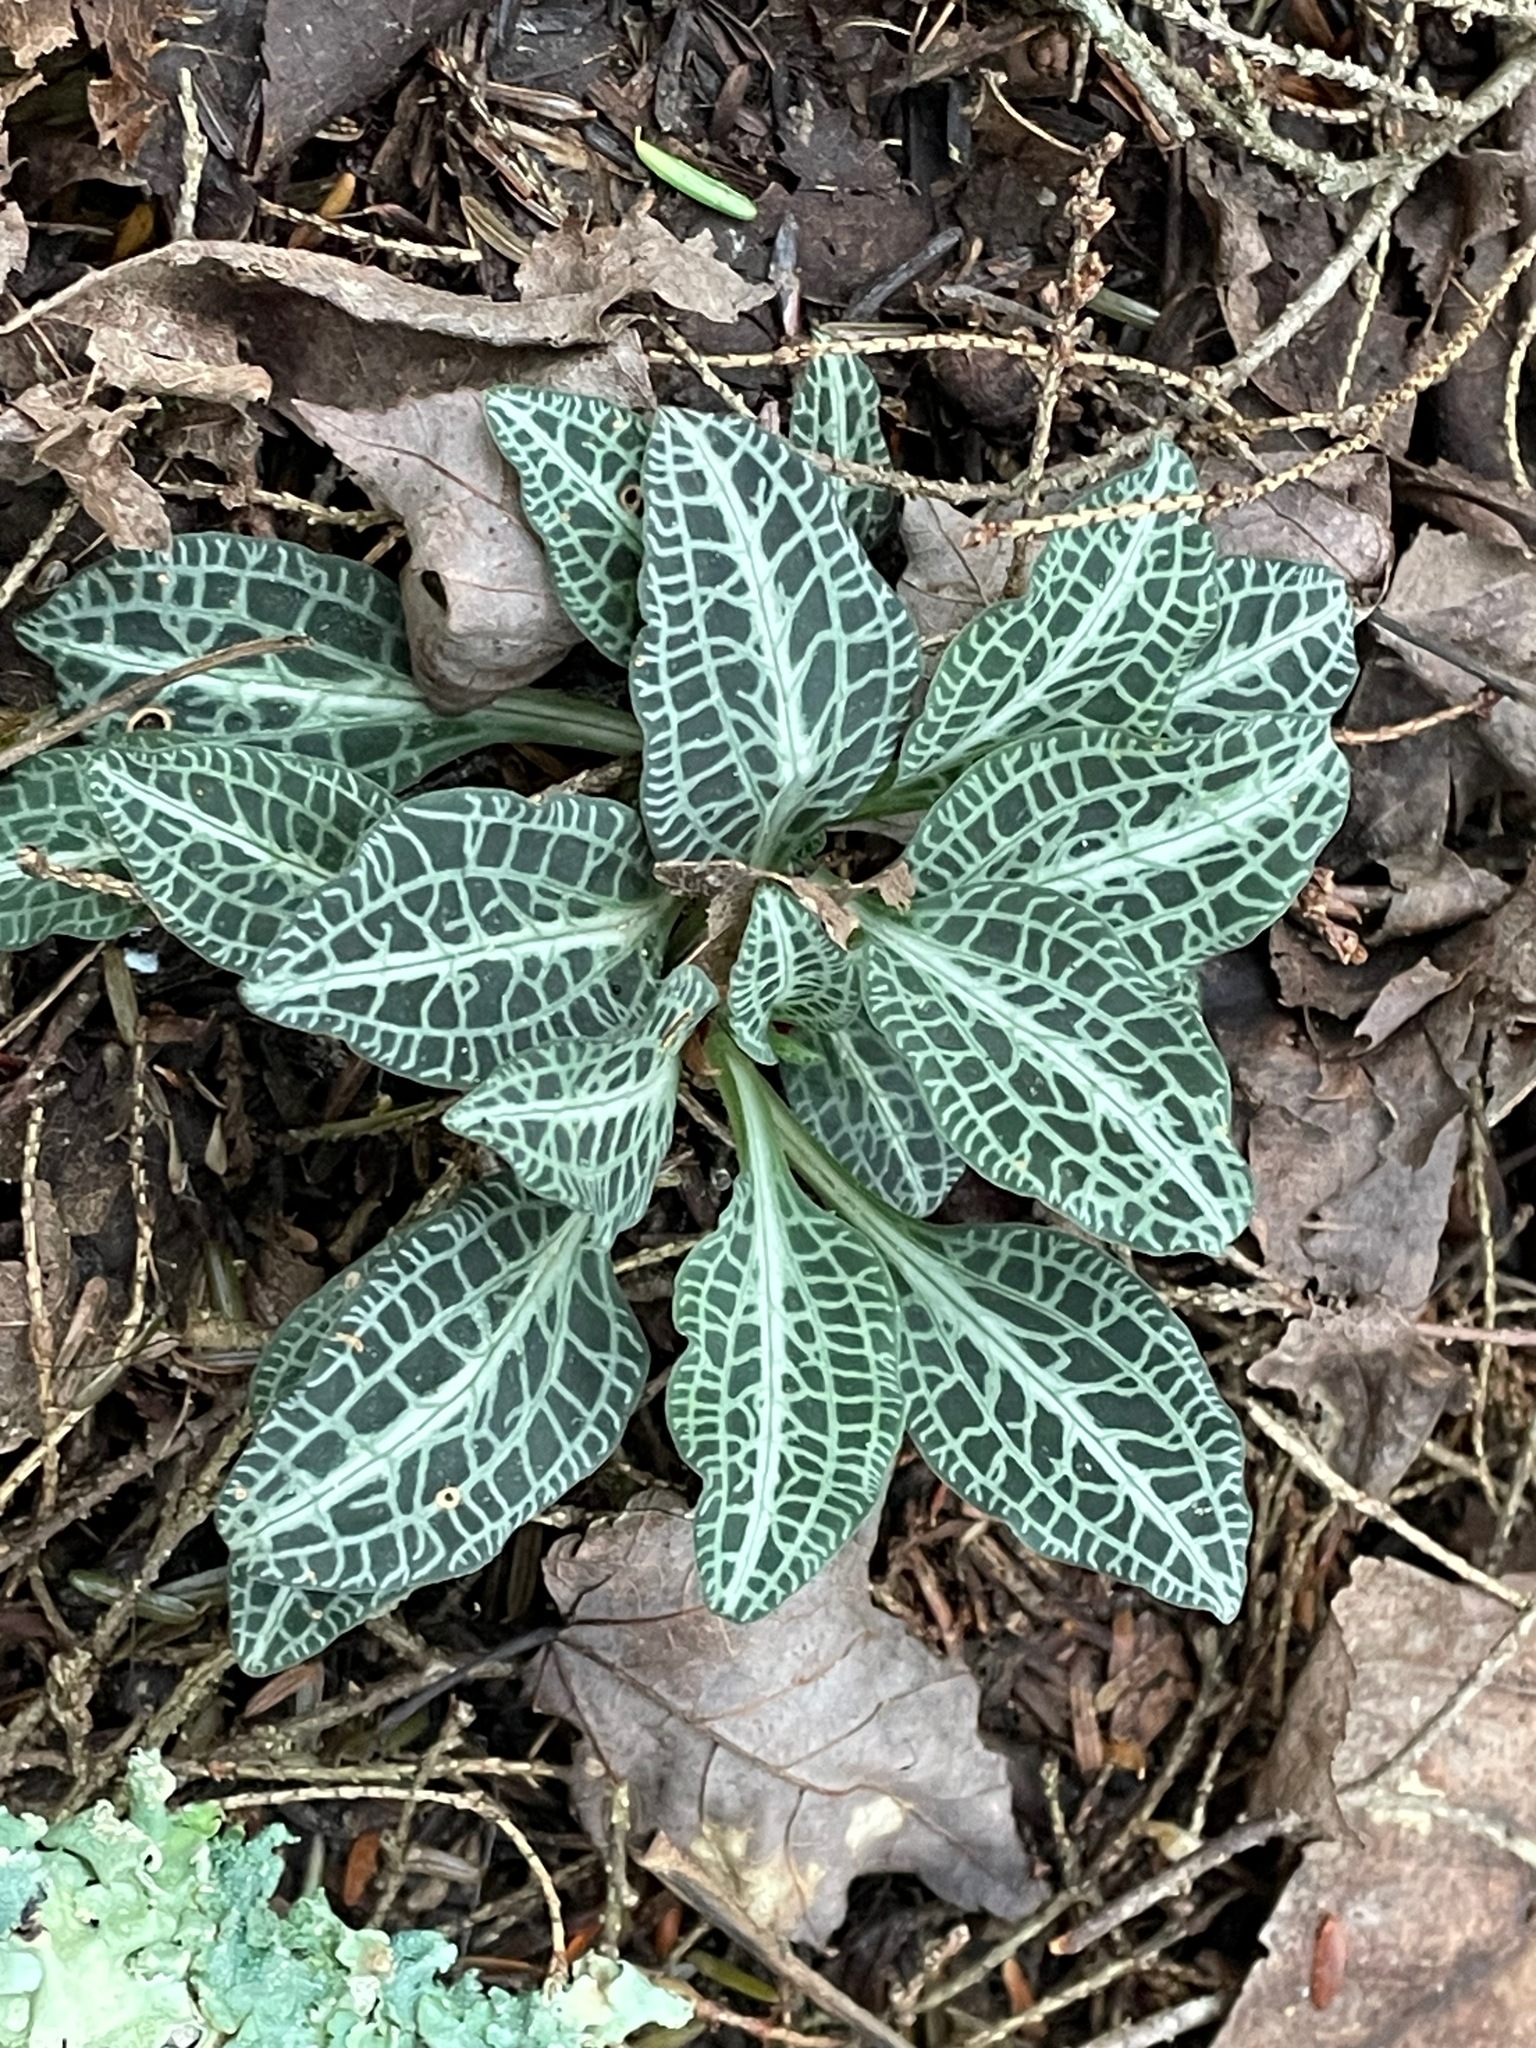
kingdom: Plantae
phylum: Tracheophyta
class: Liliopsida
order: Asparagales
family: Orchidaceae
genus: Goodyera
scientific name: Goodyera pubescens
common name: Downy rattlesnake-plantain
